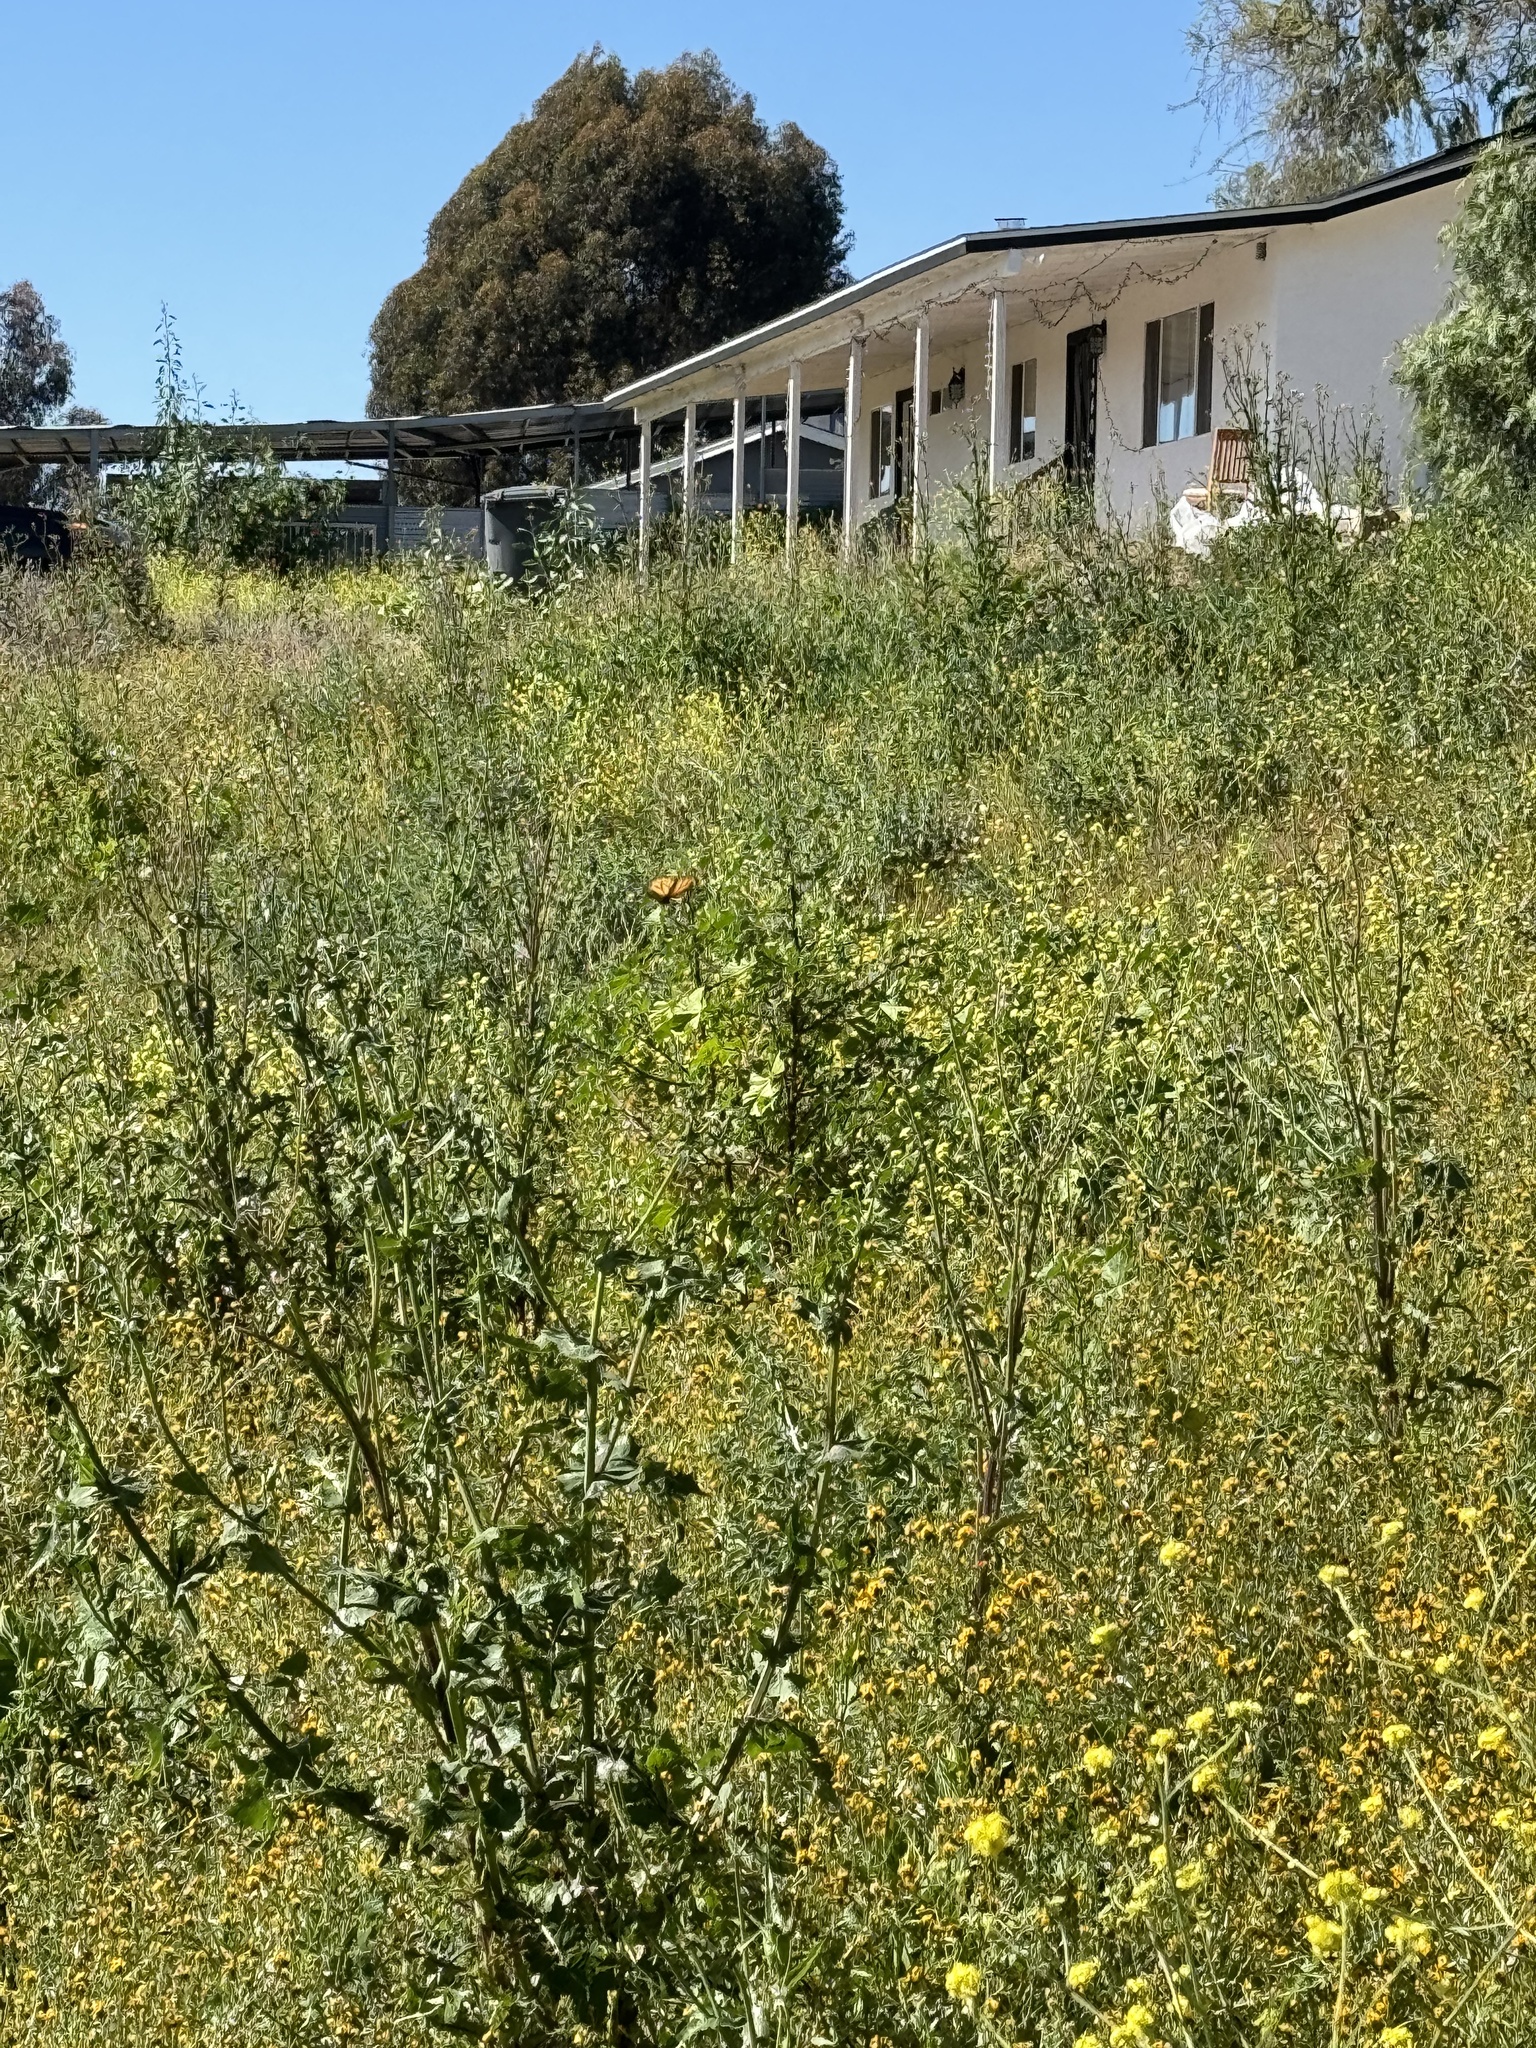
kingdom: Animalia
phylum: Arthropoda
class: Insecta
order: Lepidoptera
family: Nymphalidae
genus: Danaus
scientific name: Danaus plexippus
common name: Monarch
